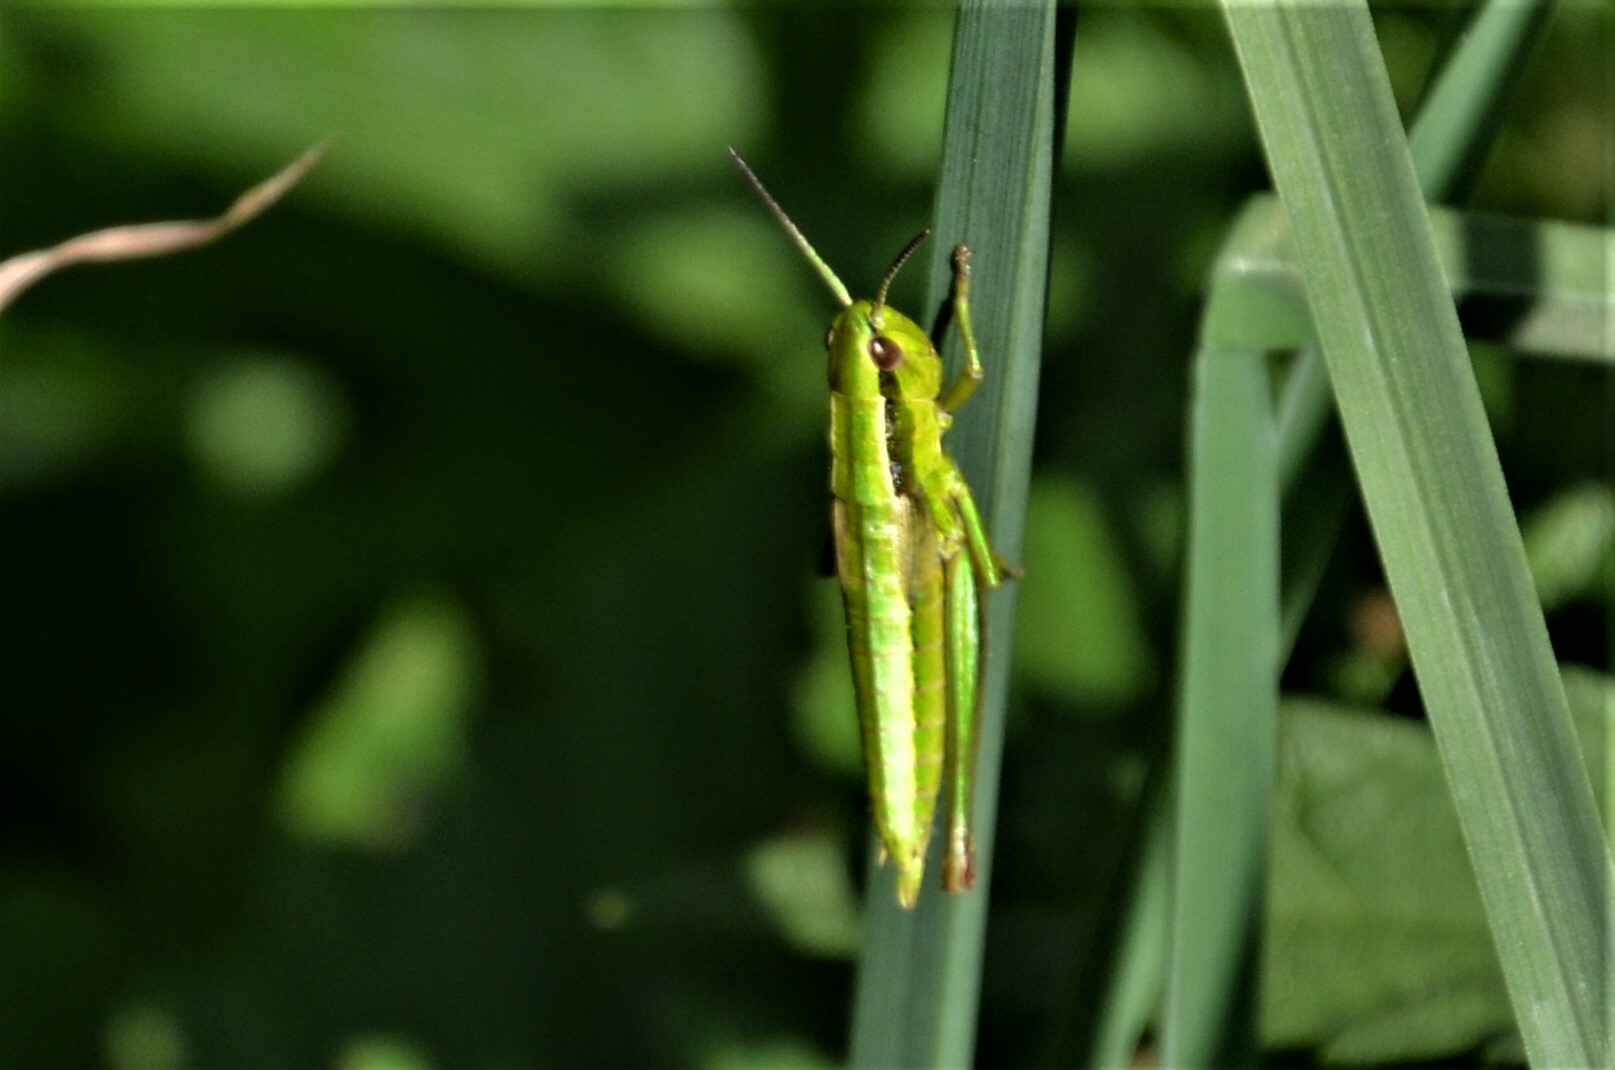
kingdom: Animalia
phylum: Arthropoda
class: Insecta
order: Orthoptera
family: Acrididae
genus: Euthystira
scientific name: Euthystira brachyptera
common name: Small gold grasshopper
